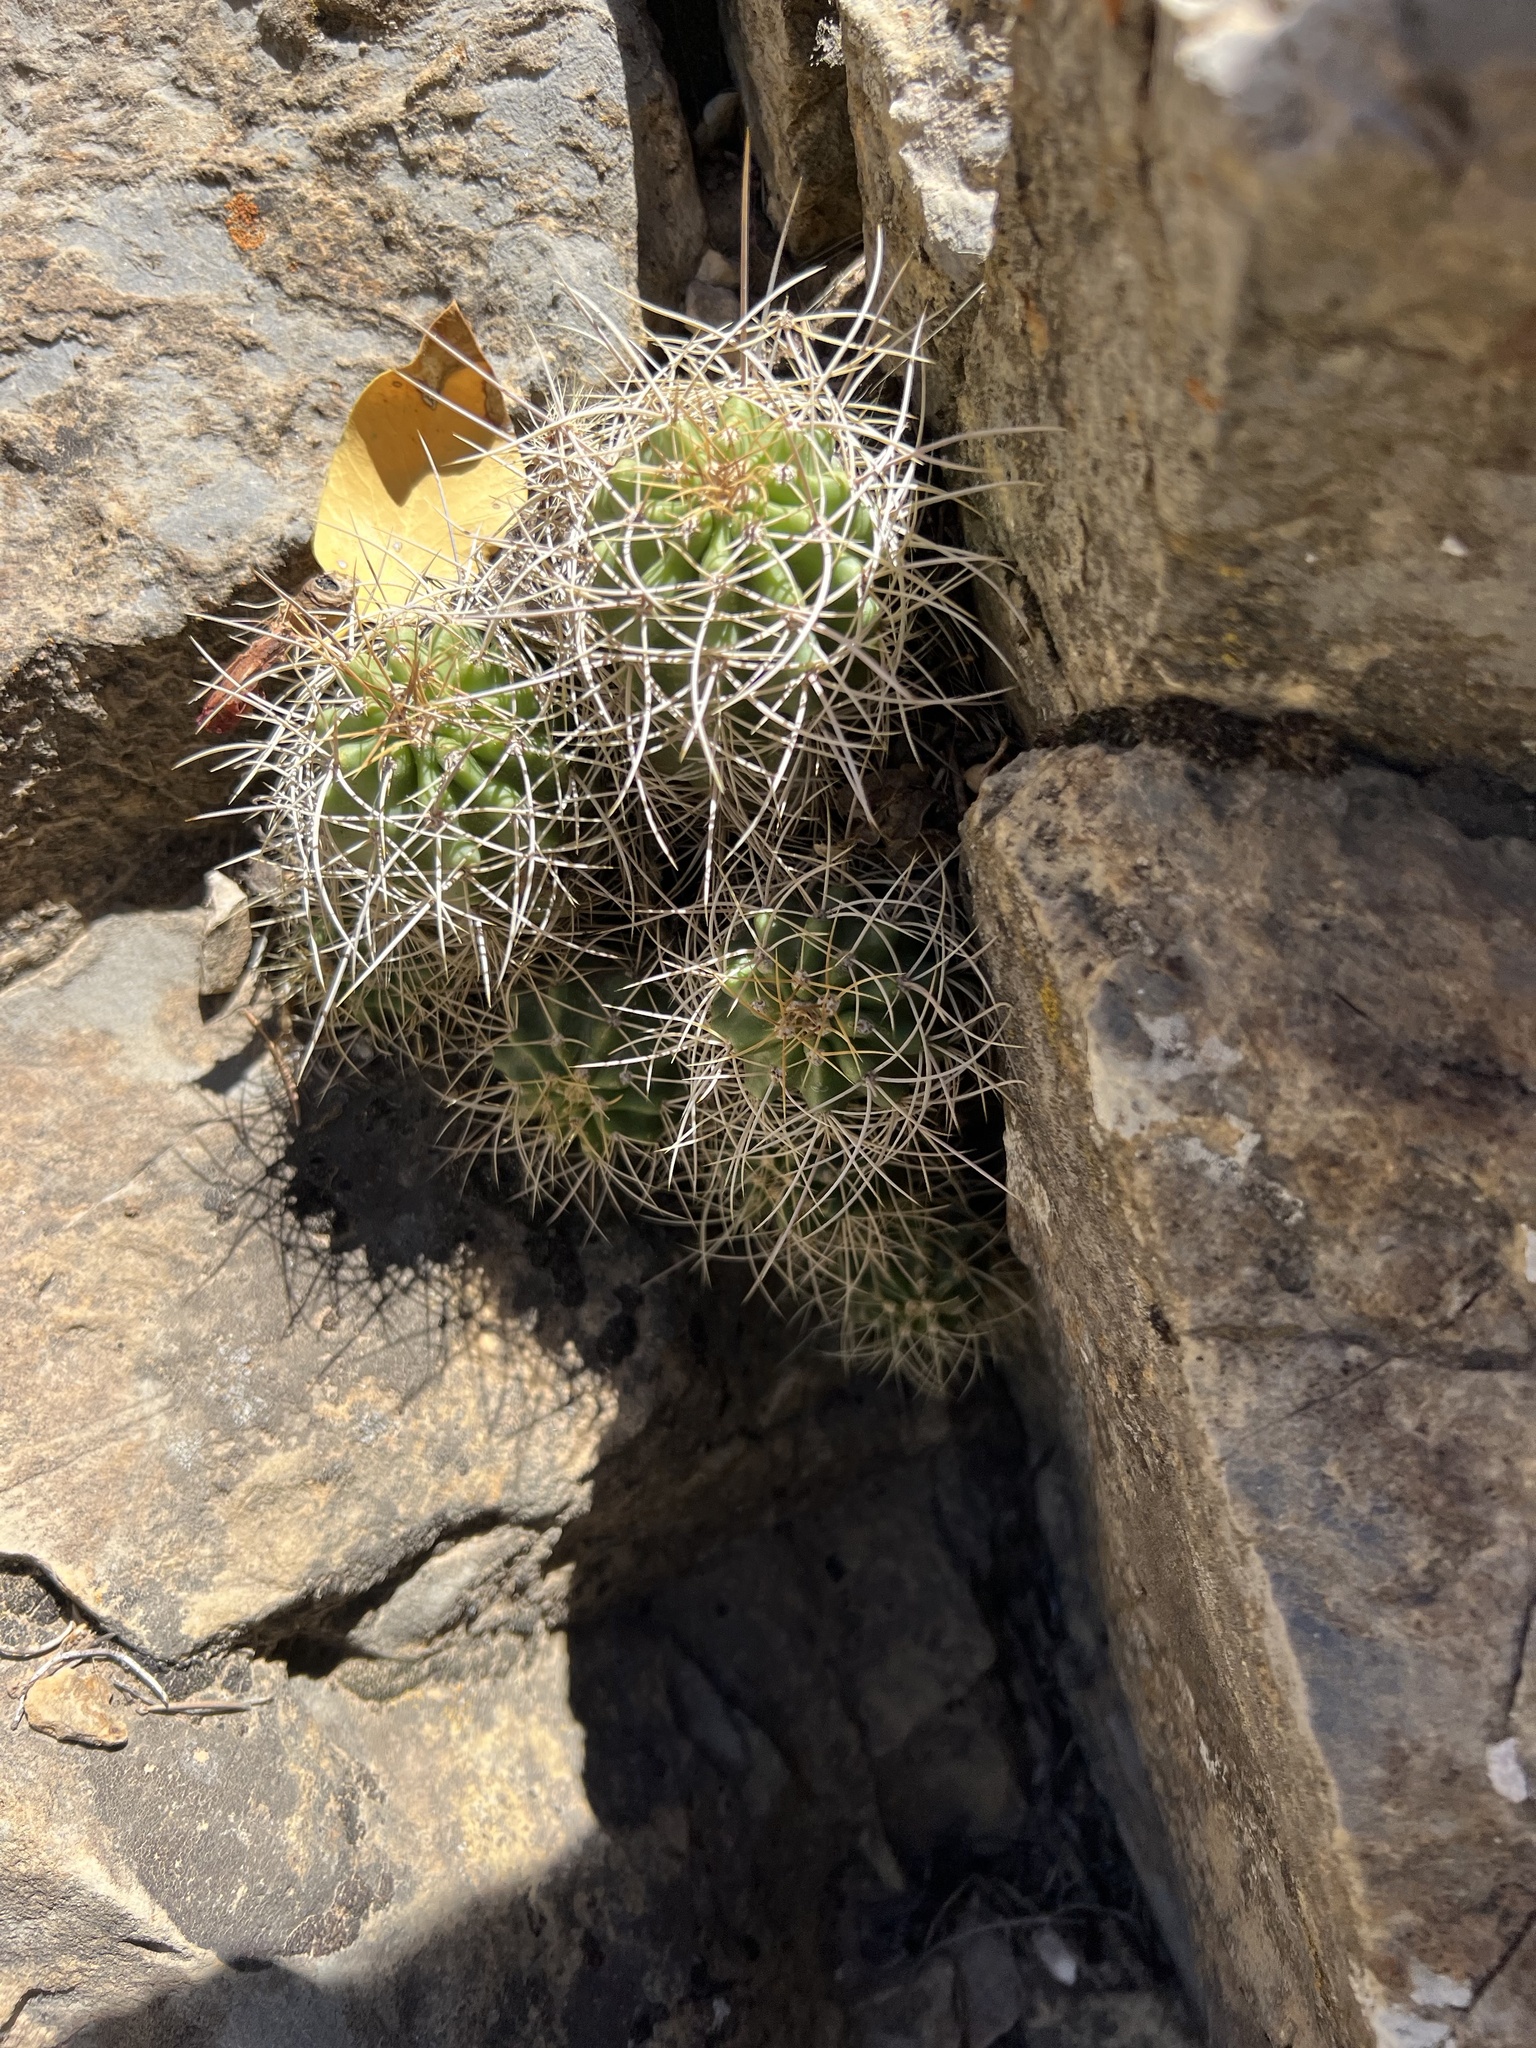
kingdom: Plantae
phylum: Tracheophyta
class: Magnoliopsida
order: Caryophyllales
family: Cactaceae
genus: Echinocereus
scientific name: Echinocereus triglochidiatus
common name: Claretcup hedgehog
